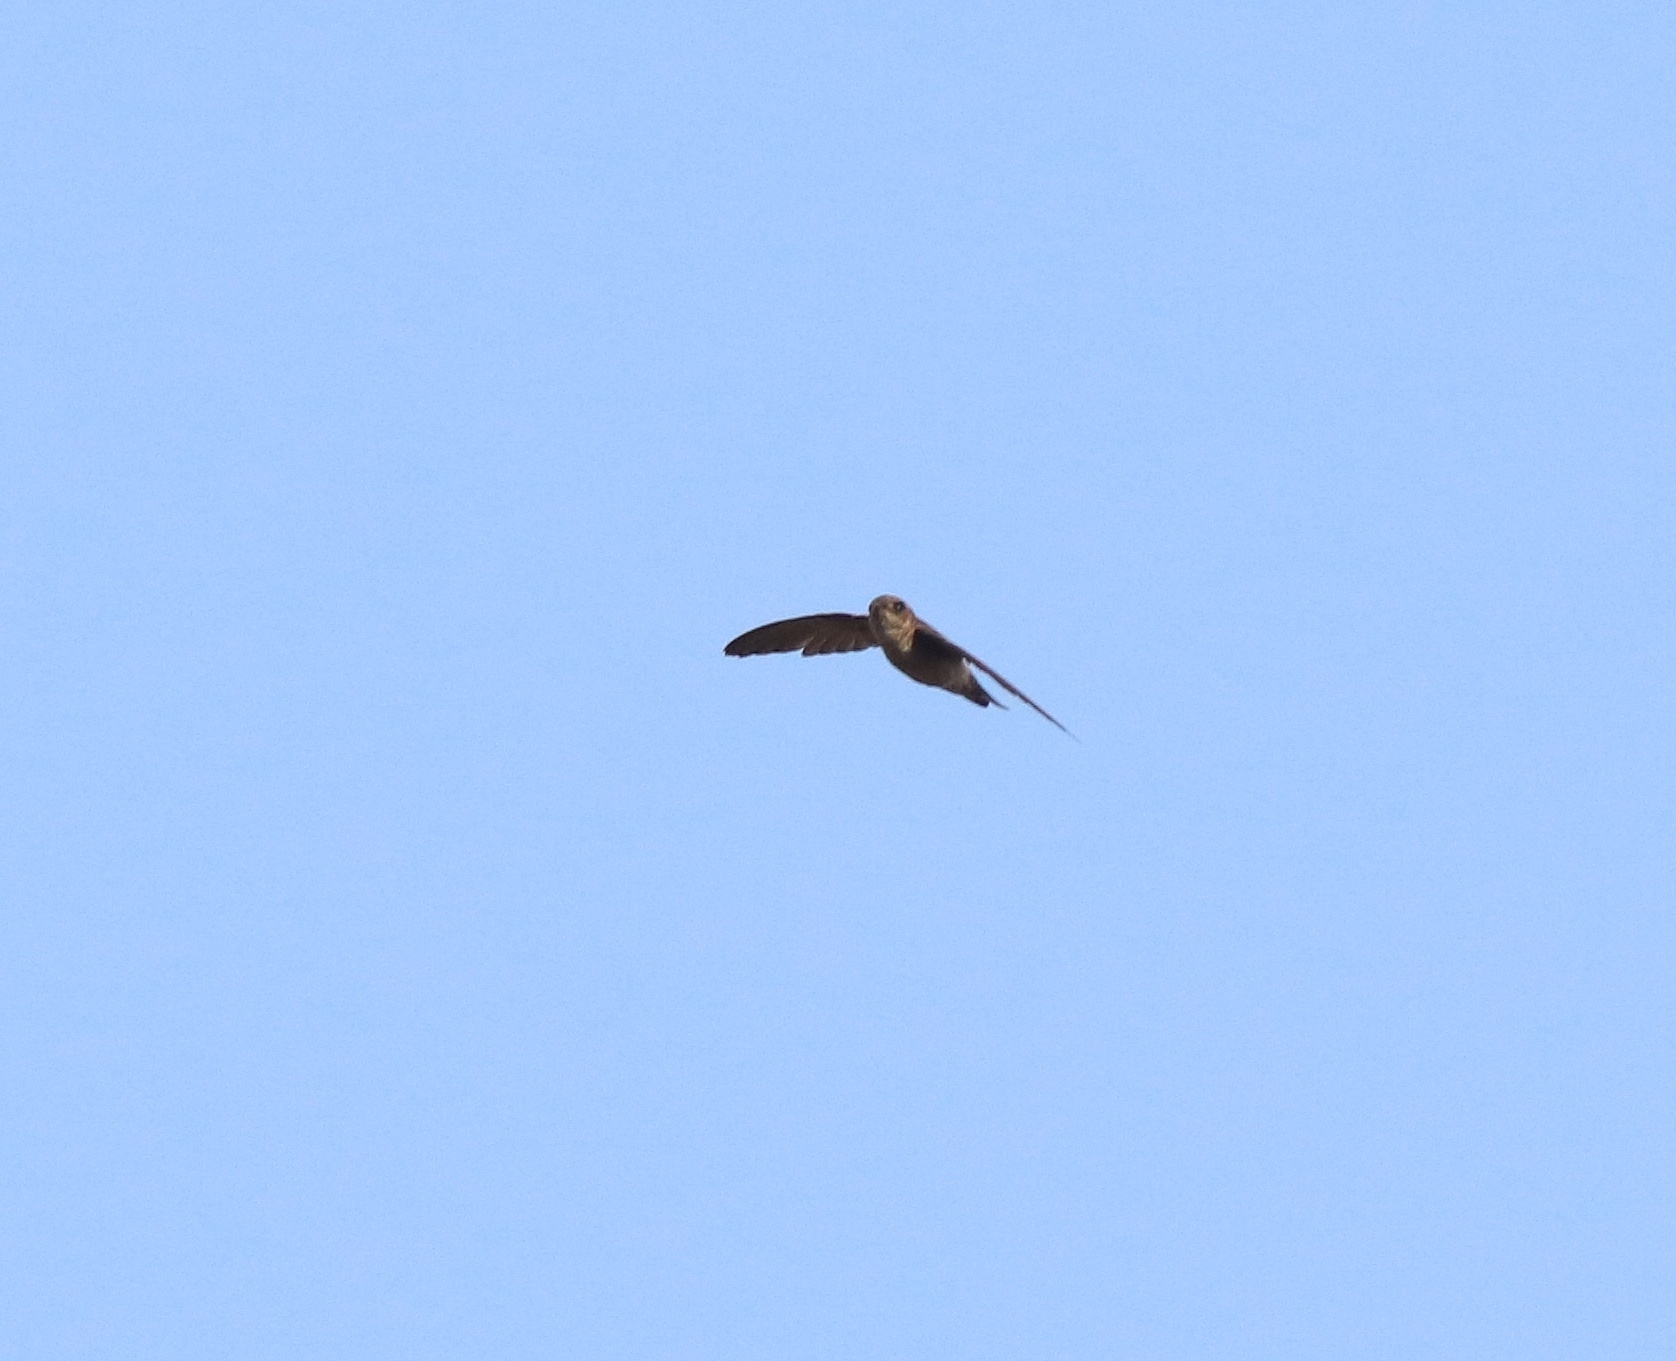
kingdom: Animalia
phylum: Chordata
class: Aves
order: Apodiformes
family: Apodidae
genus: Aerodramus
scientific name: Aerodramus unicolor
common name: Indian swiftlet
